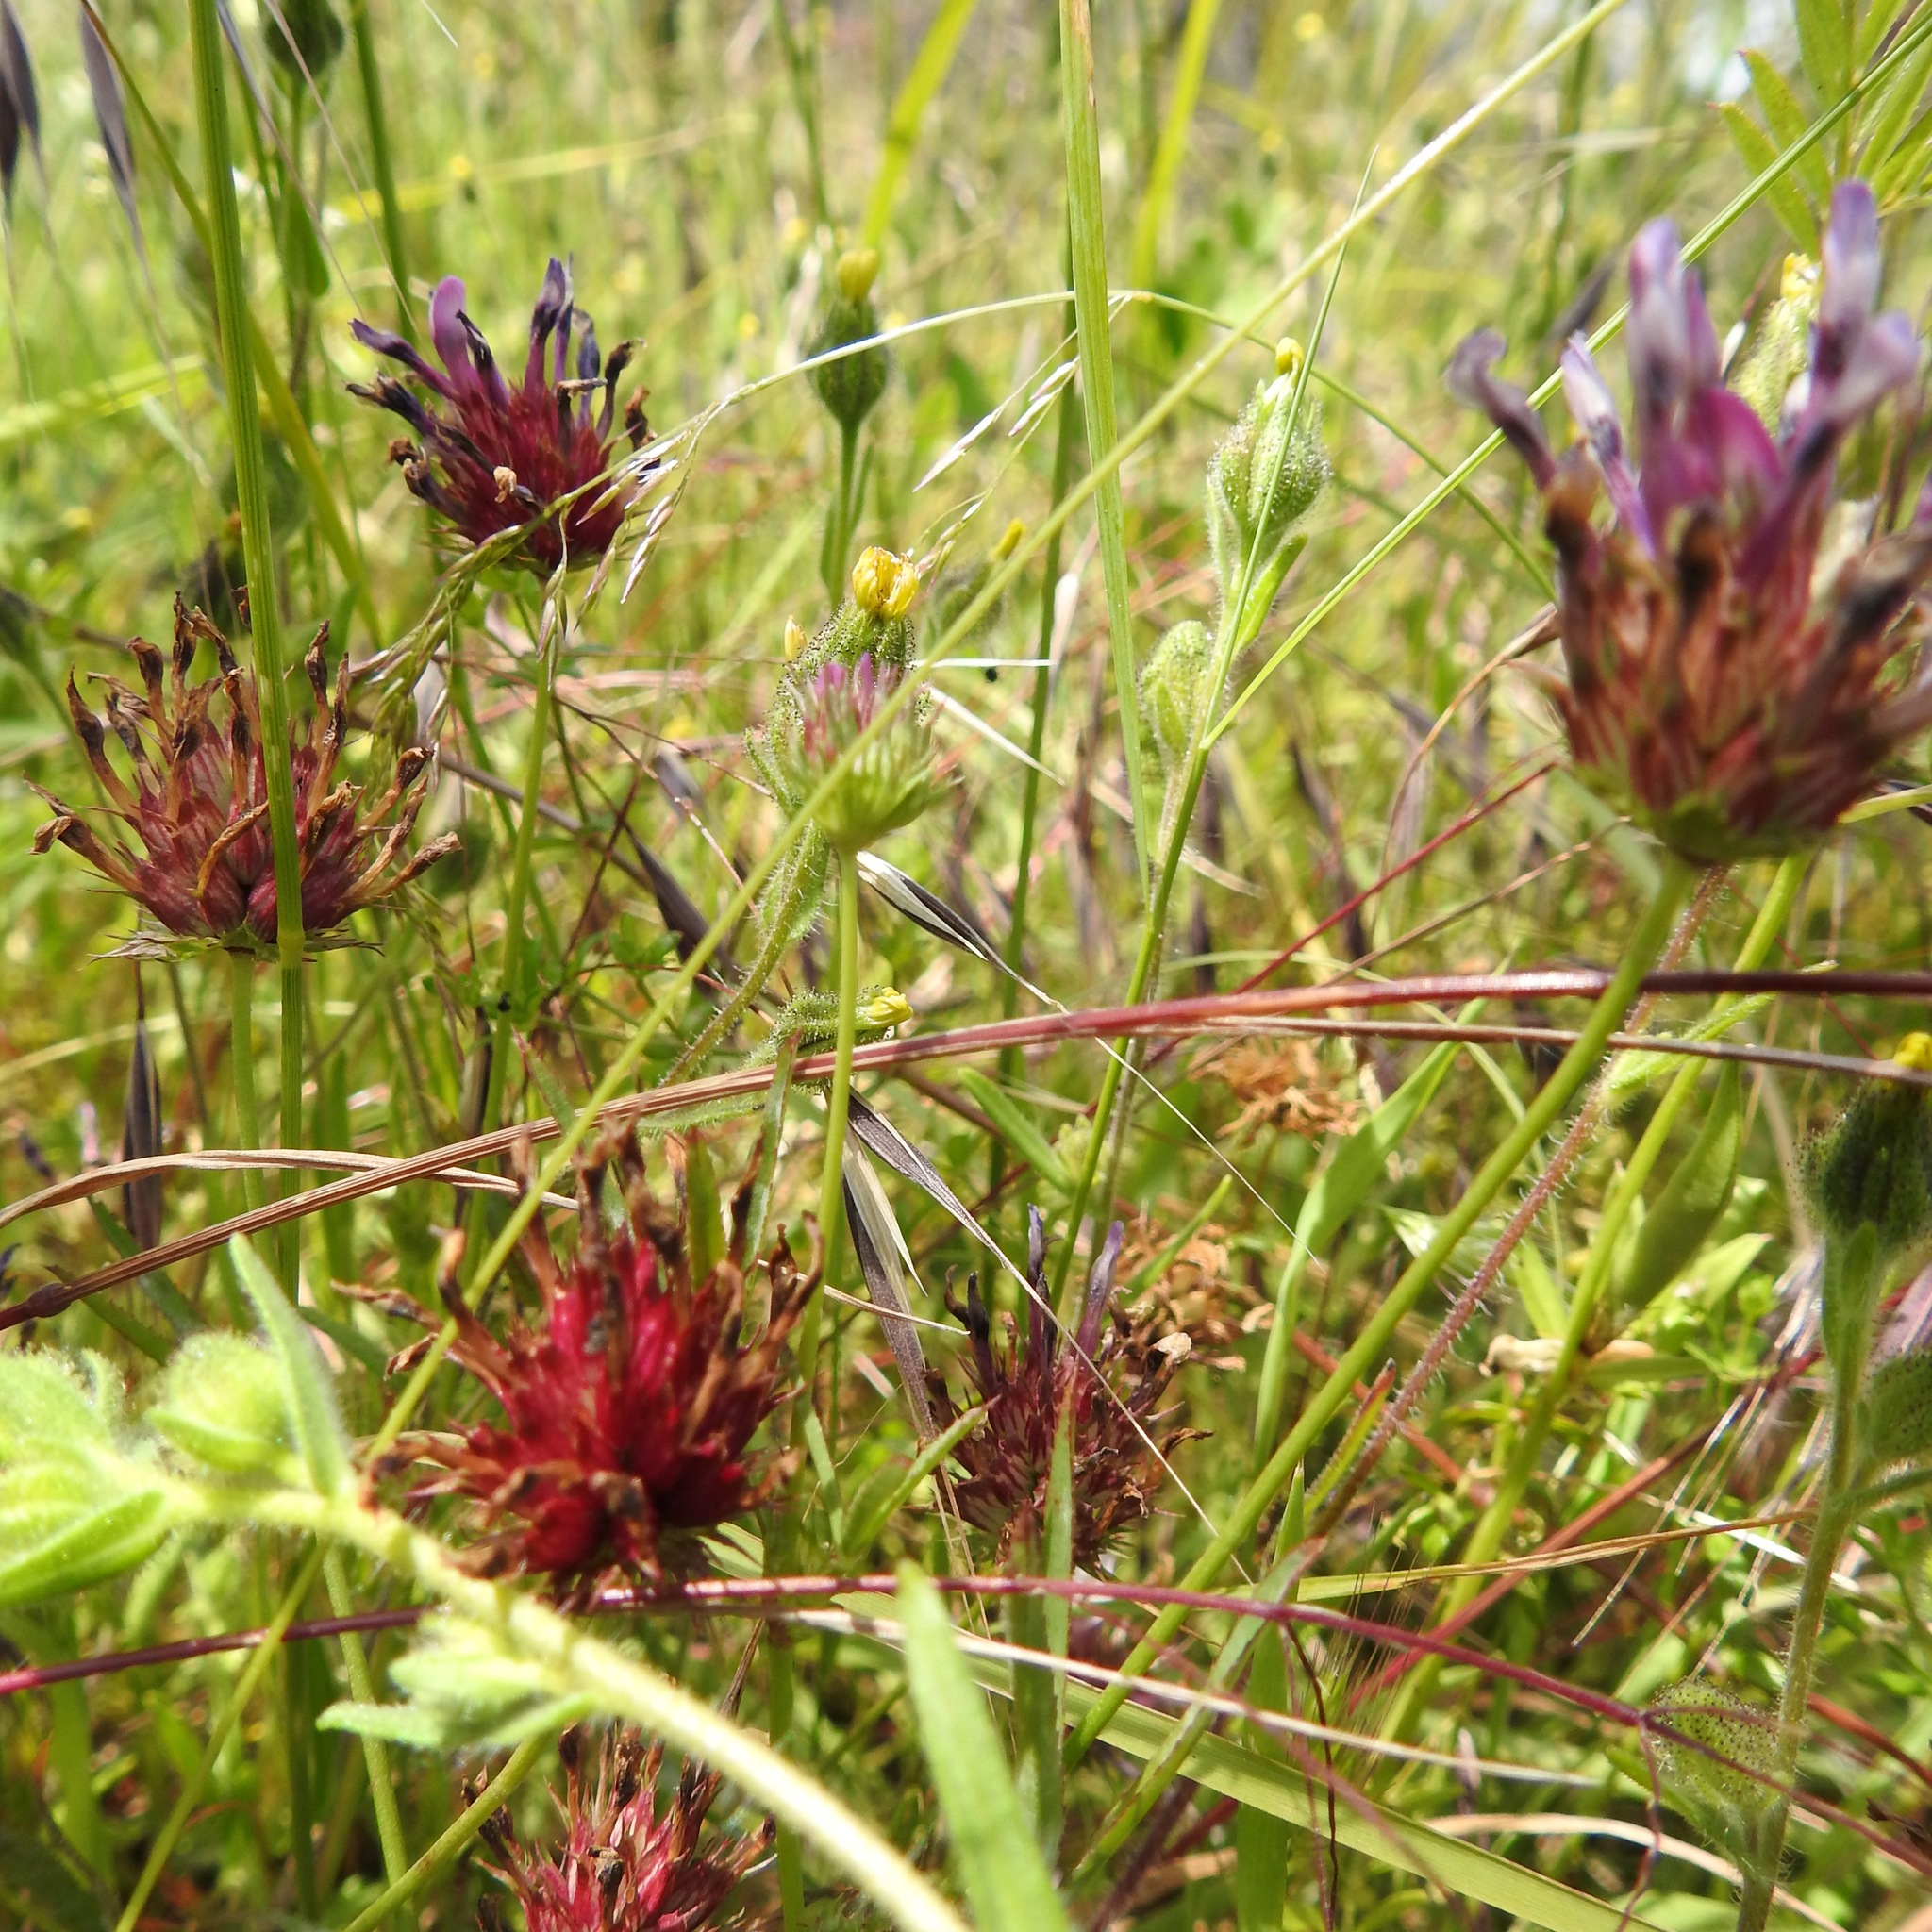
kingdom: Plantae
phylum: Tracheophyta
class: Magnoliopsida
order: Fabales
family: Fabaceae
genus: Trifolium
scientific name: Trifolium willdenovii
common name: Tomcat clover
